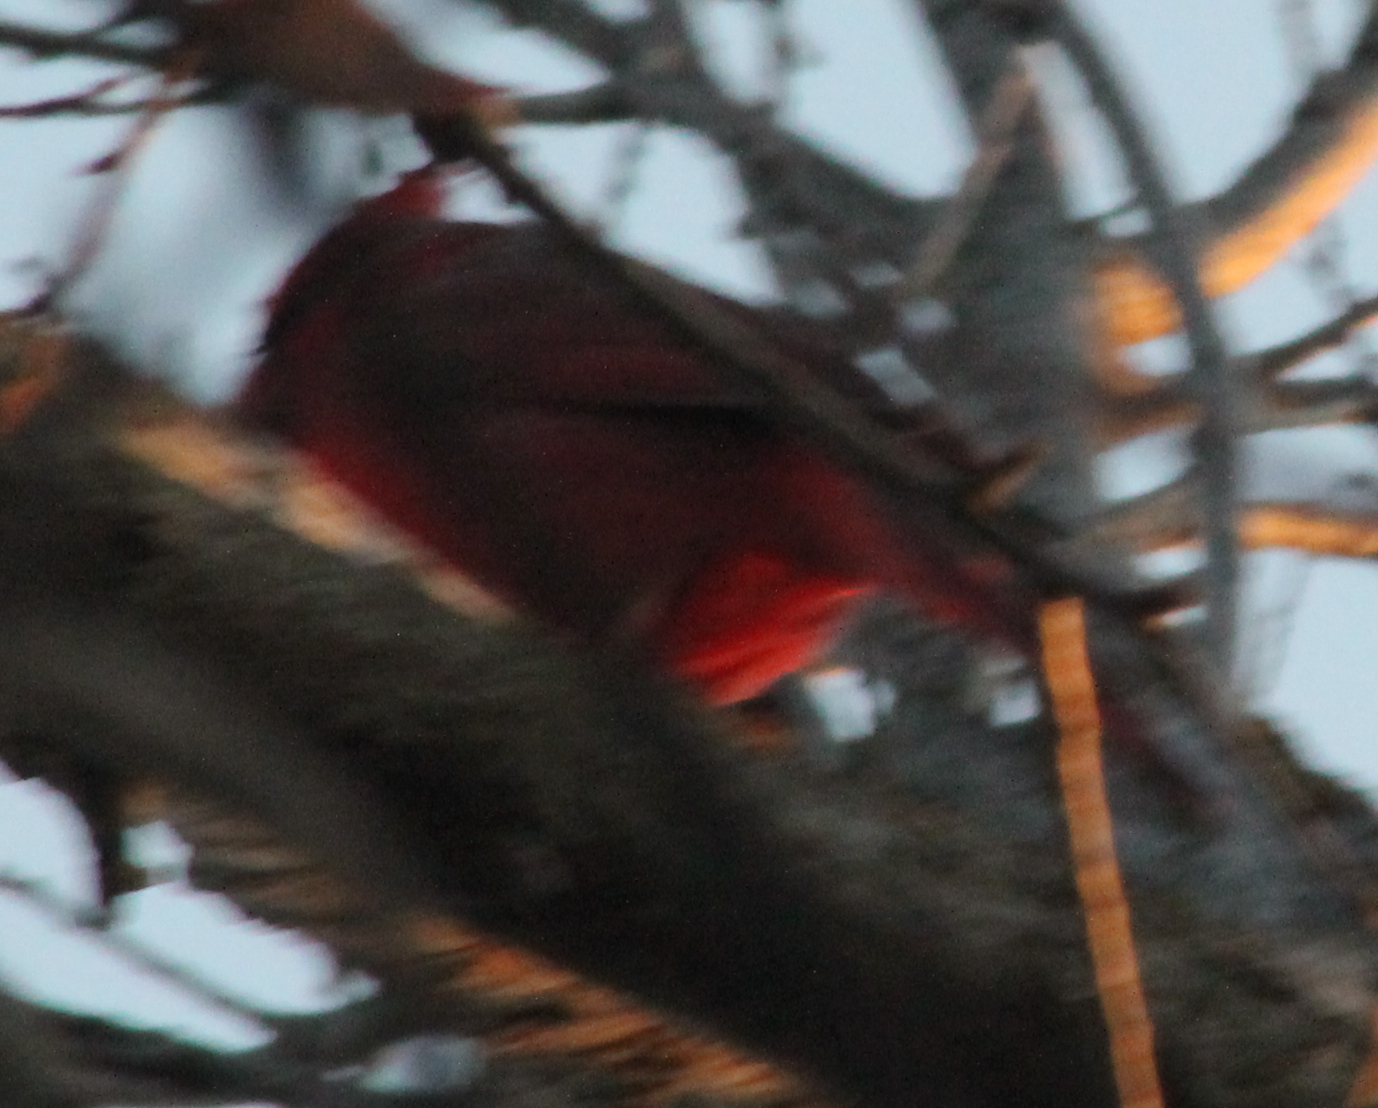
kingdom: Animalia
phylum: Chordata
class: Aves
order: Passeriformes
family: Cardinalidae
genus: Cardinalis
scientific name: Cardinalis cardinalis
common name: Northern cardinal
